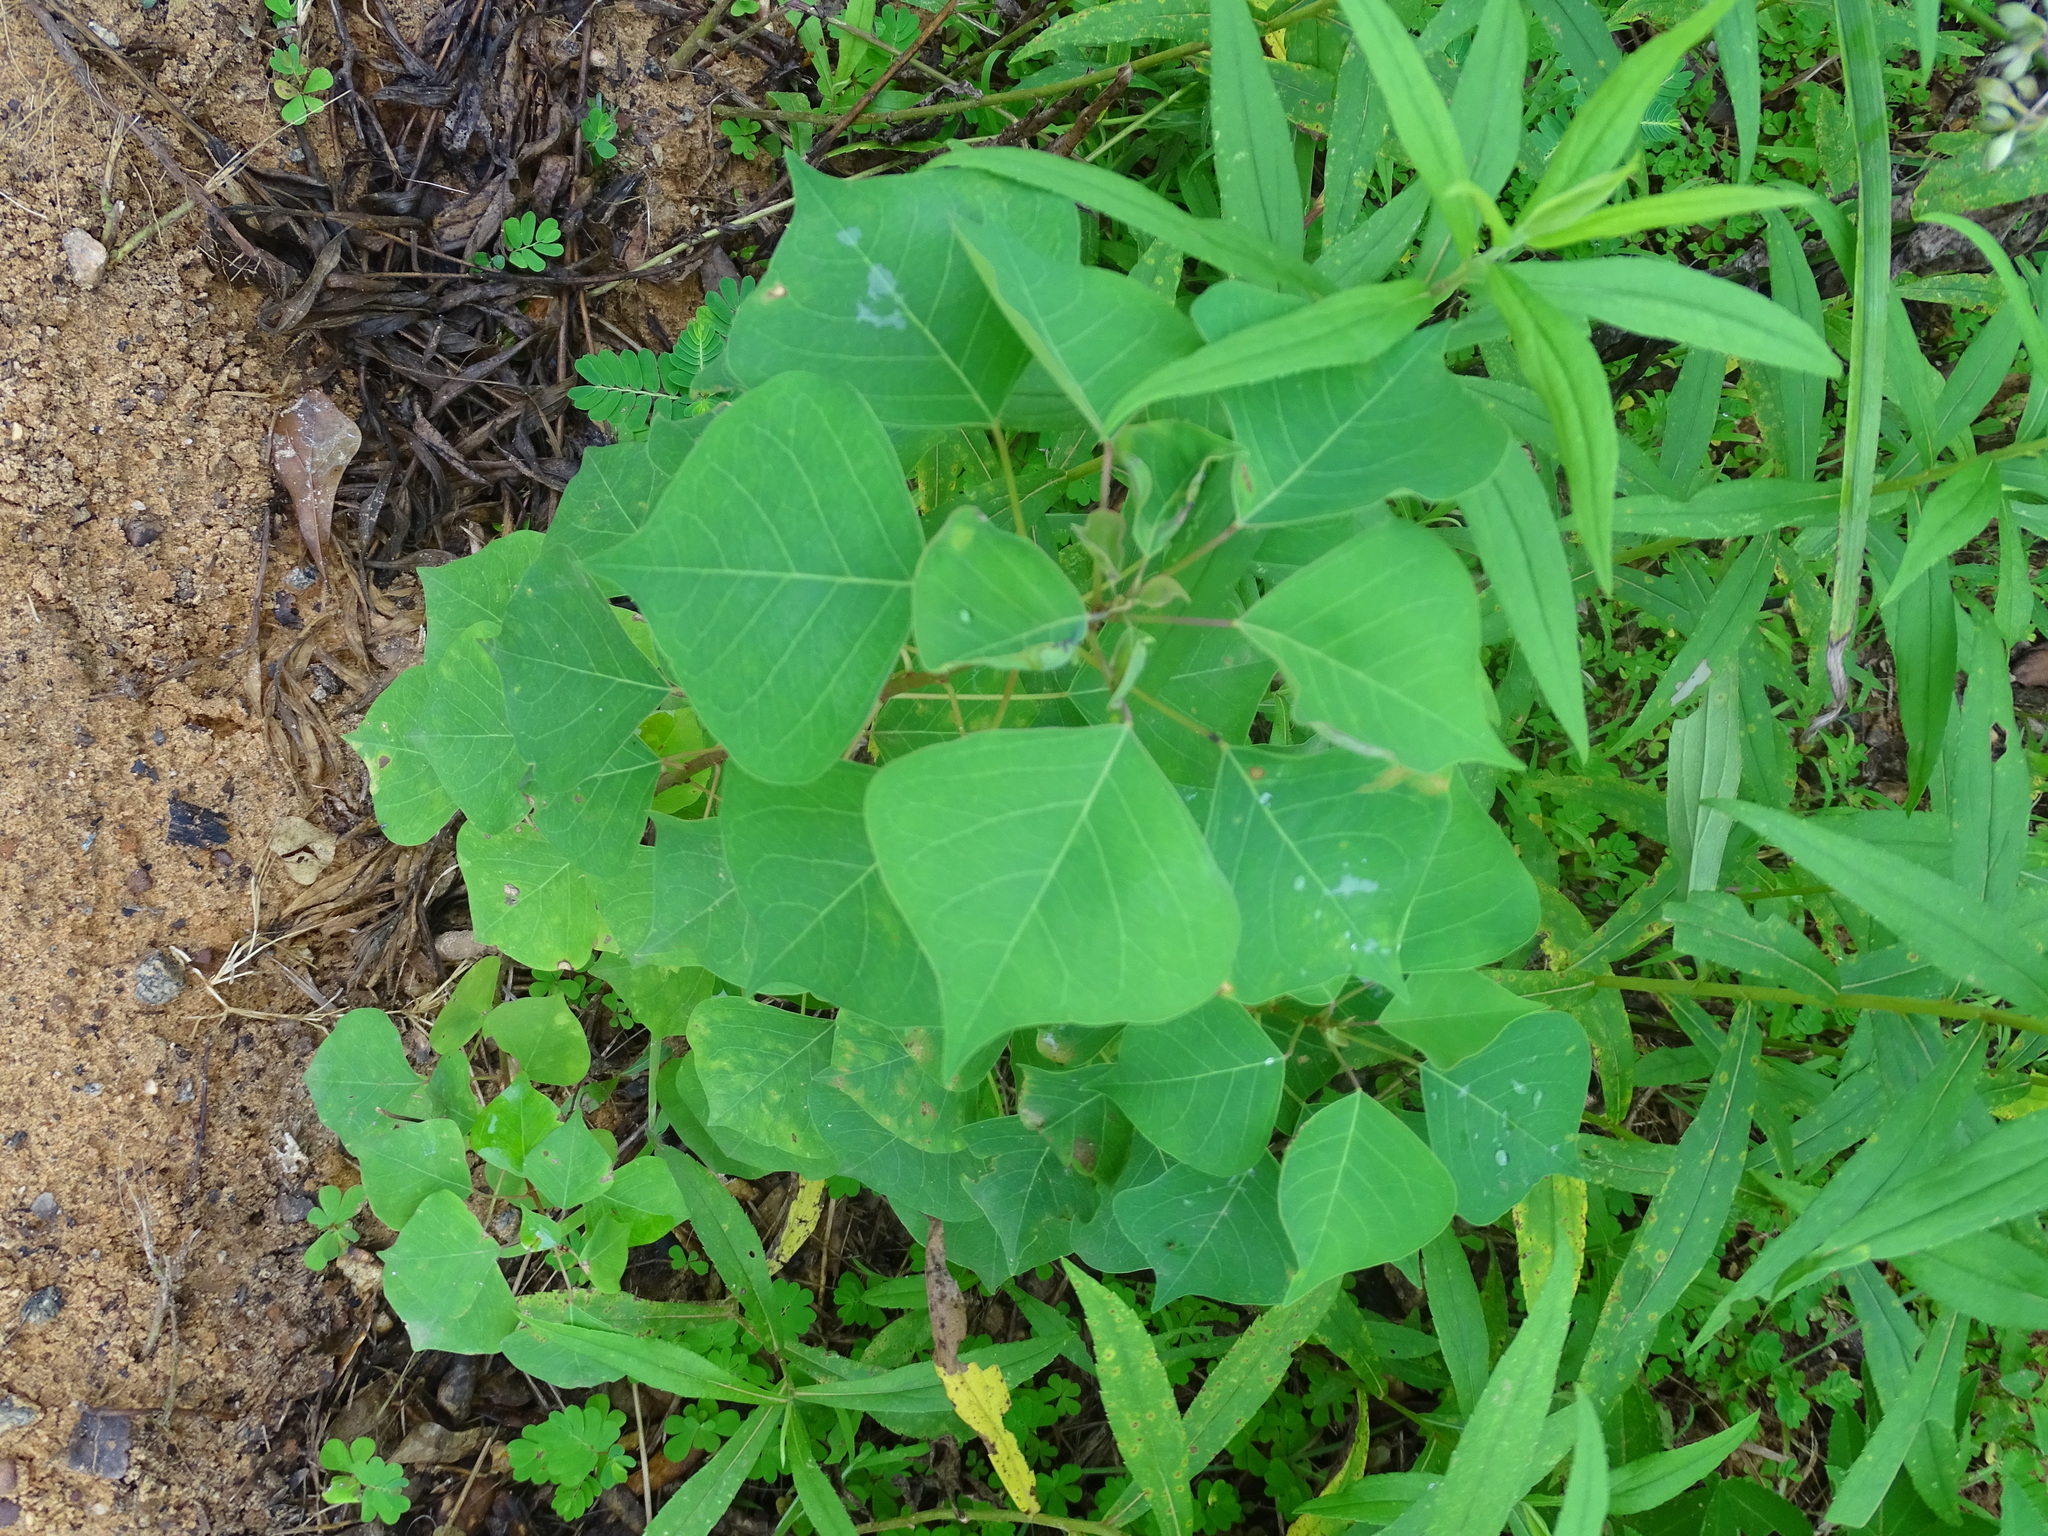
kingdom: Plantae
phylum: Tracheophyta
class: Magnoliopsida
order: Malpighiales
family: Euphorbiaceae
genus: Triadica
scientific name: Triadica sebifera
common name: Chinese tallow
